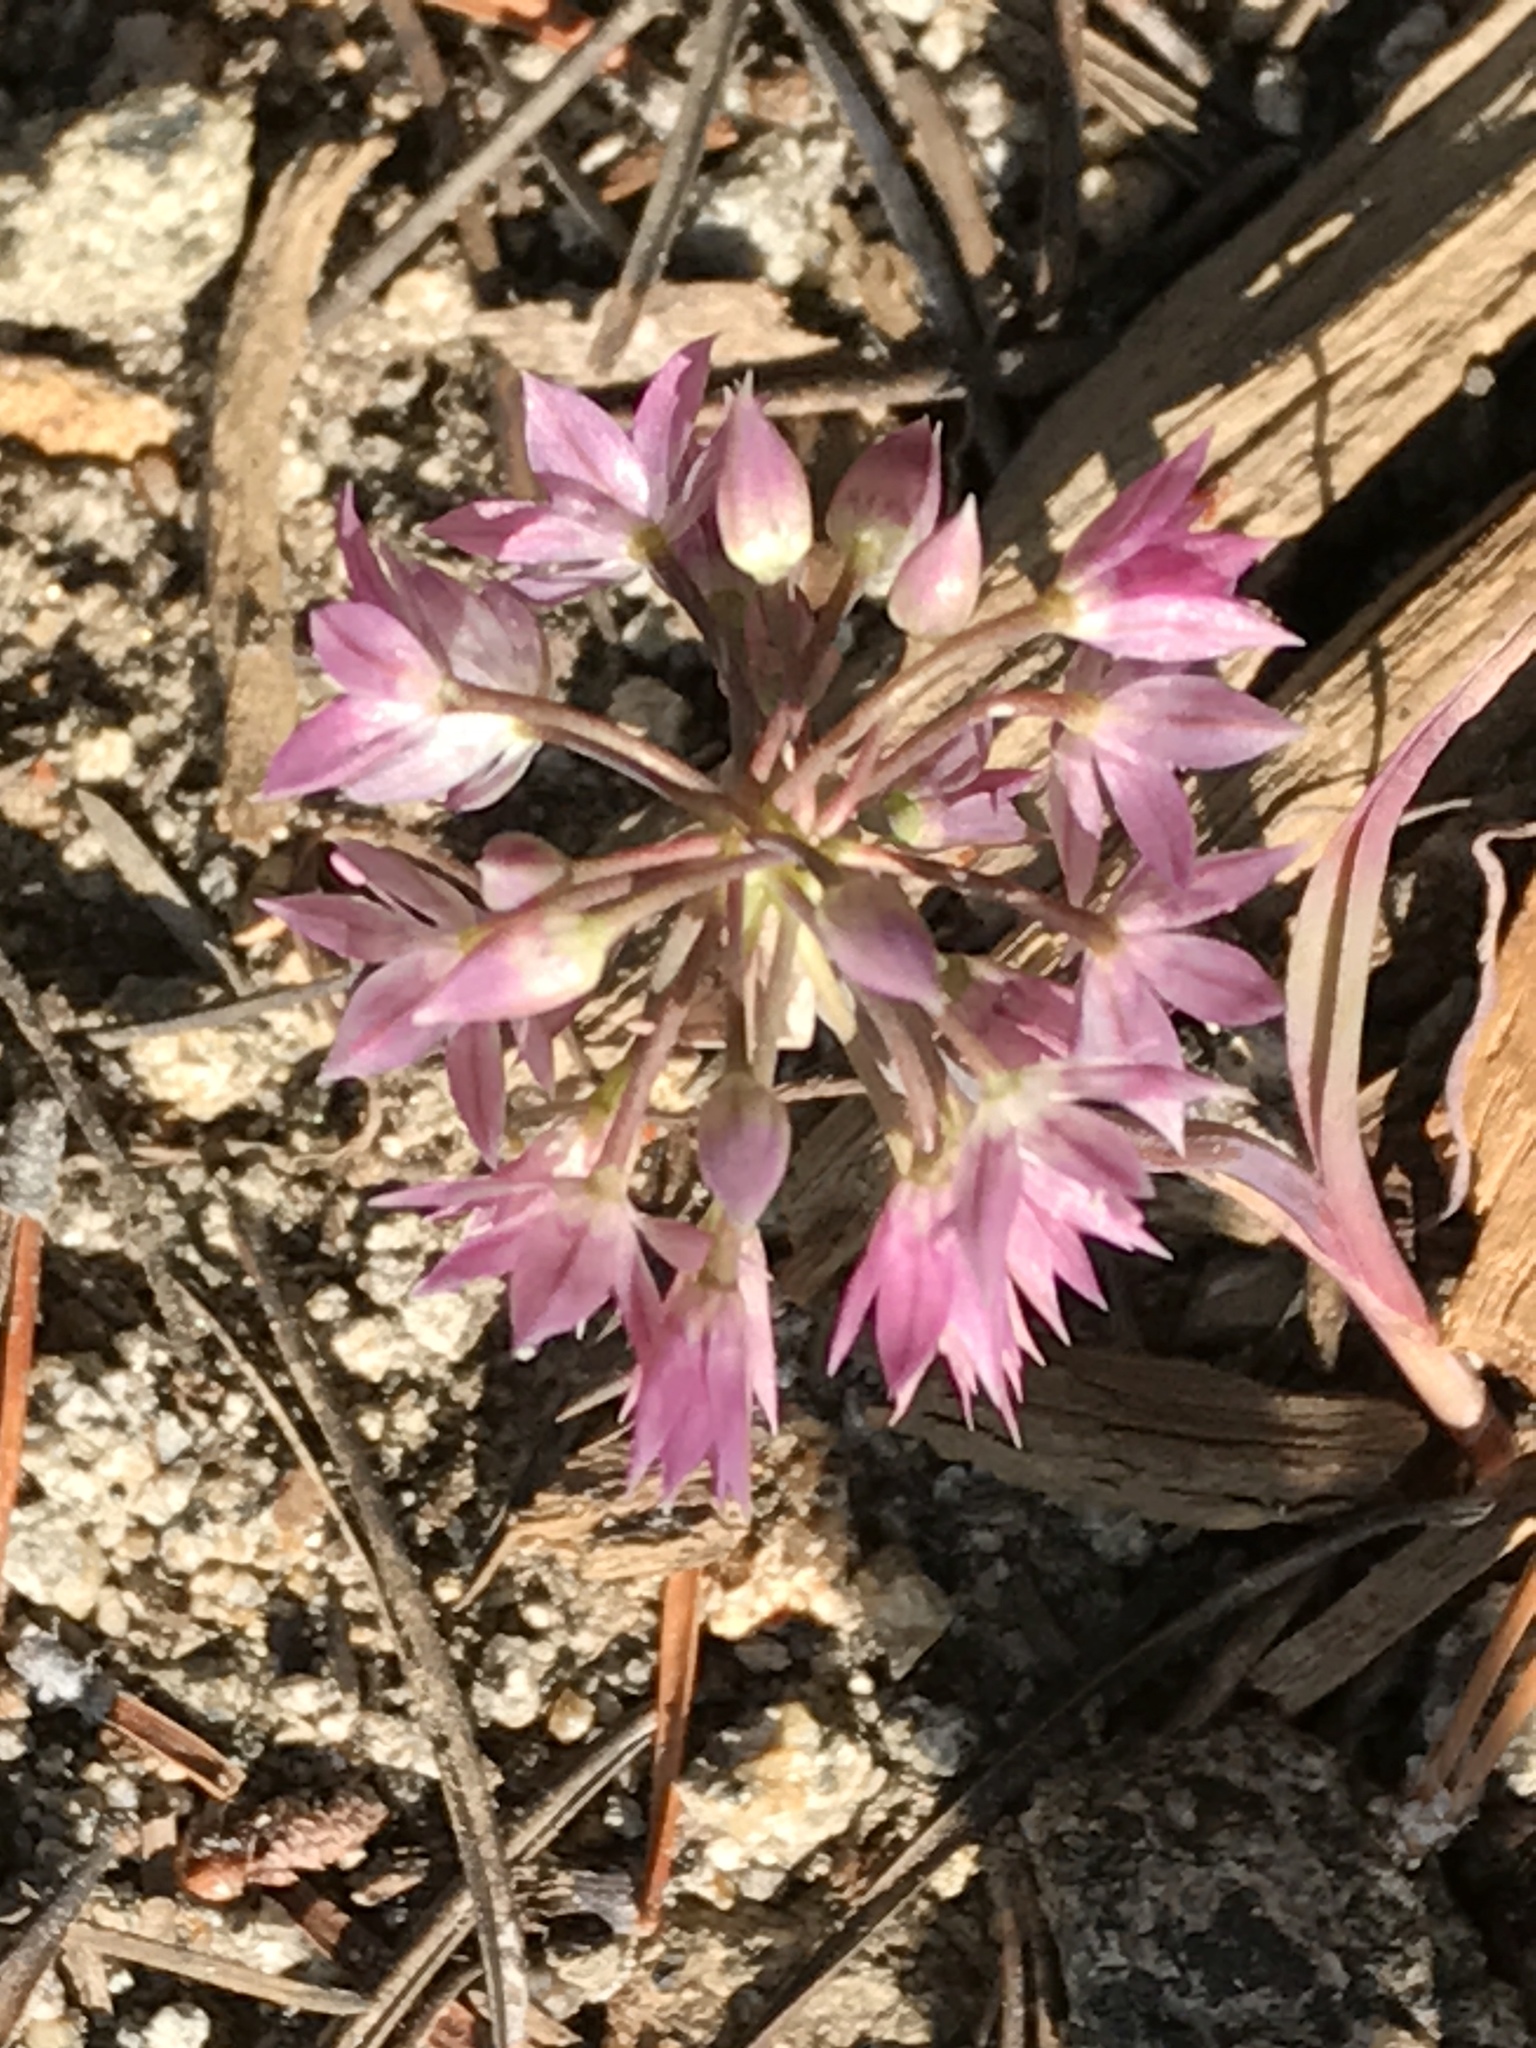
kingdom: Plantae
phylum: Tracheophyta
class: Liliopsida
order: Asparagales
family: Amaryllidaceae
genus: Allium
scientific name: Allium campanulatum
